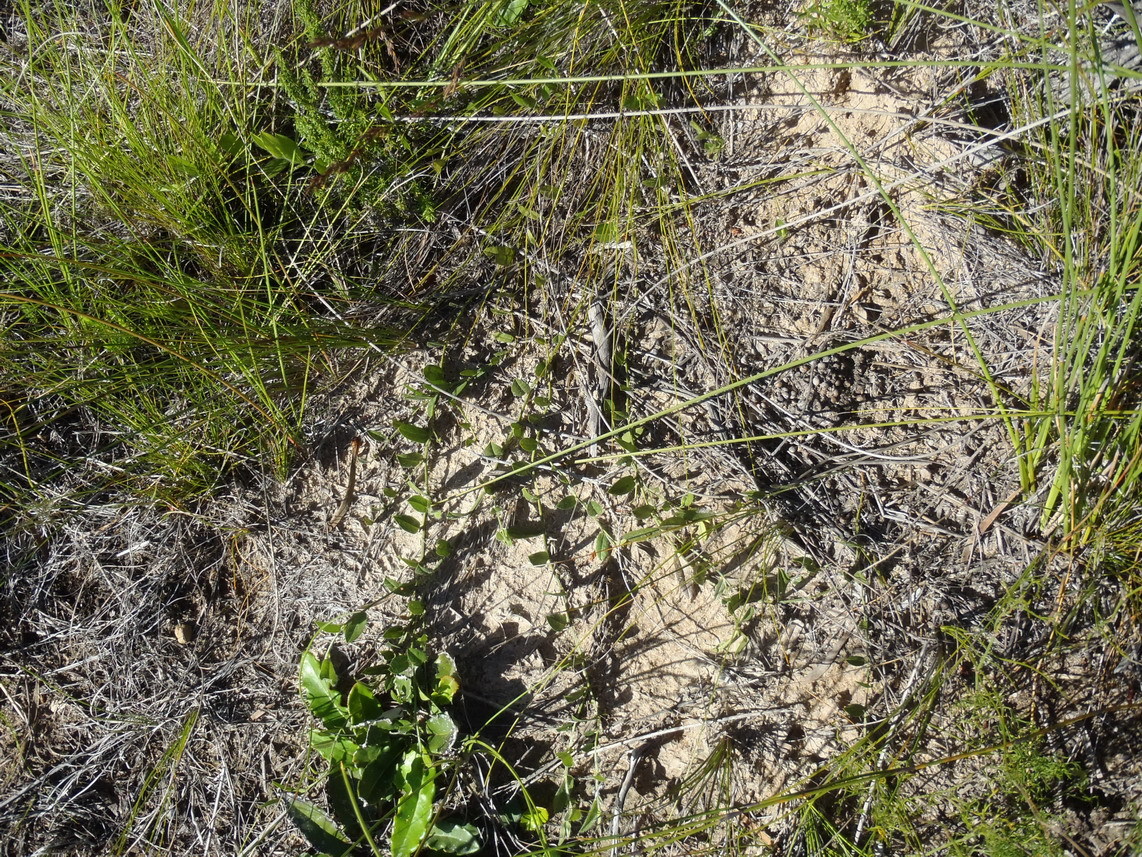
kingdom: Plantae
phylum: Tracheophyta
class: Magnoliopsida
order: Fabales
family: Fabaceae
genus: Psoralea
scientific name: Psoralea plauta
